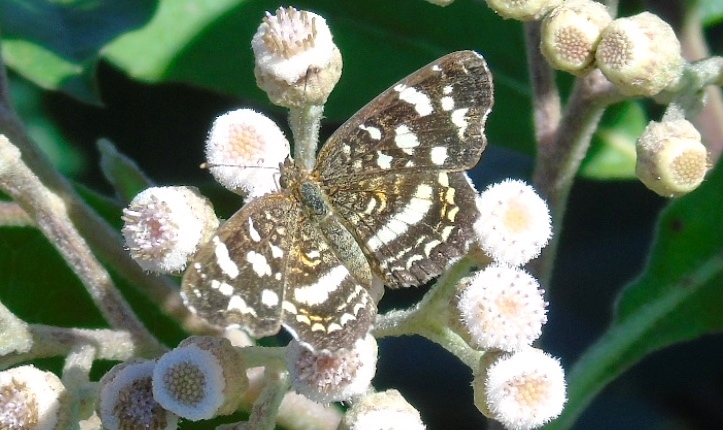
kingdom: Animalia
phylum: Arthropoda
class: Insecta
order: Lepidoptera
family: Nymphalidae
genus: Anthanassa
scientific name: Anthanassa tulcis
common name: Pale-banded crescent
